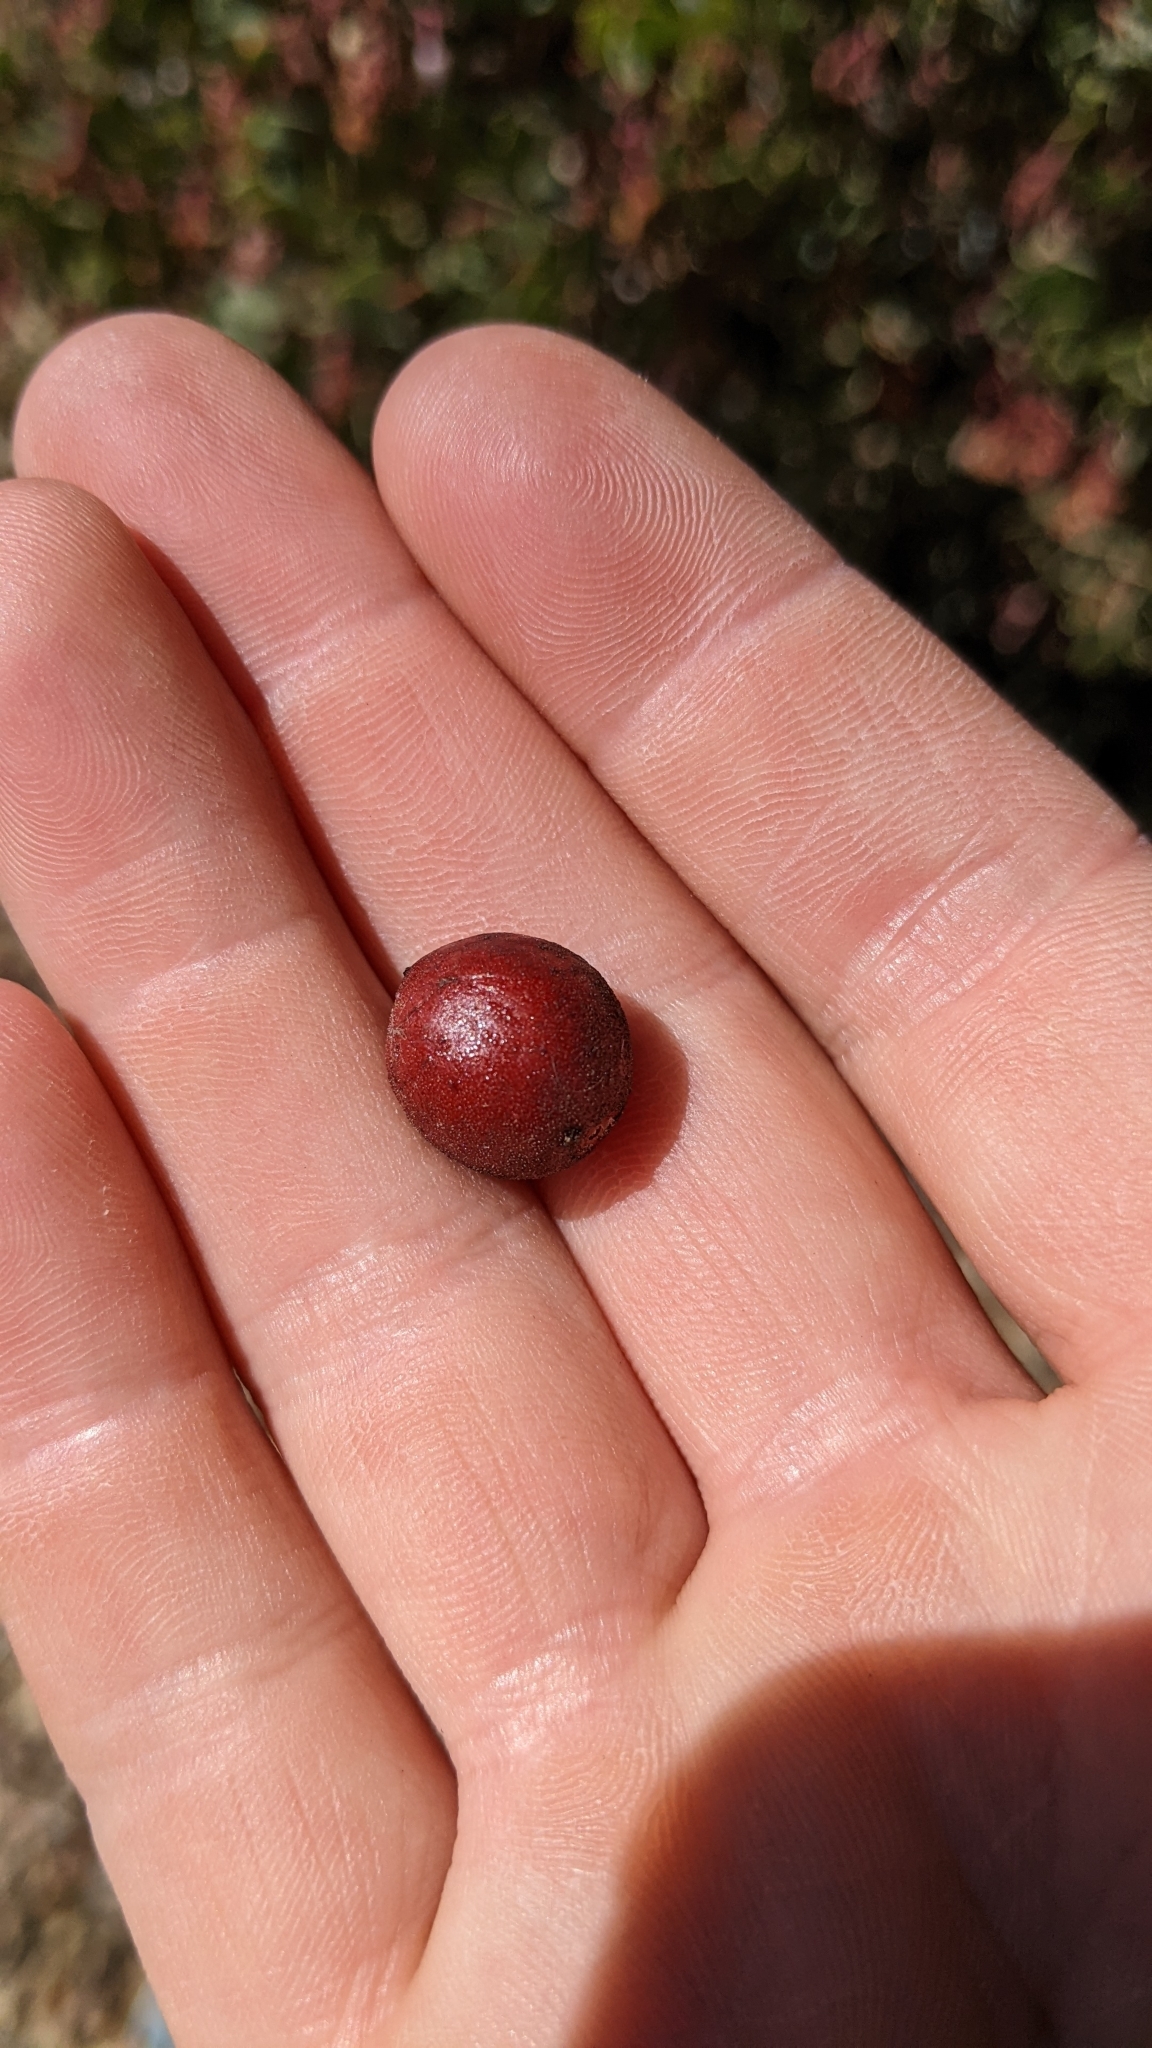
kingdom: Plantae
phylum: Tracheophyta
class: Magnoliopsida
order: Ericales
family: Ericaceae
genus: Arctostaphylos
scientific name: Arctostaphylos glauca
